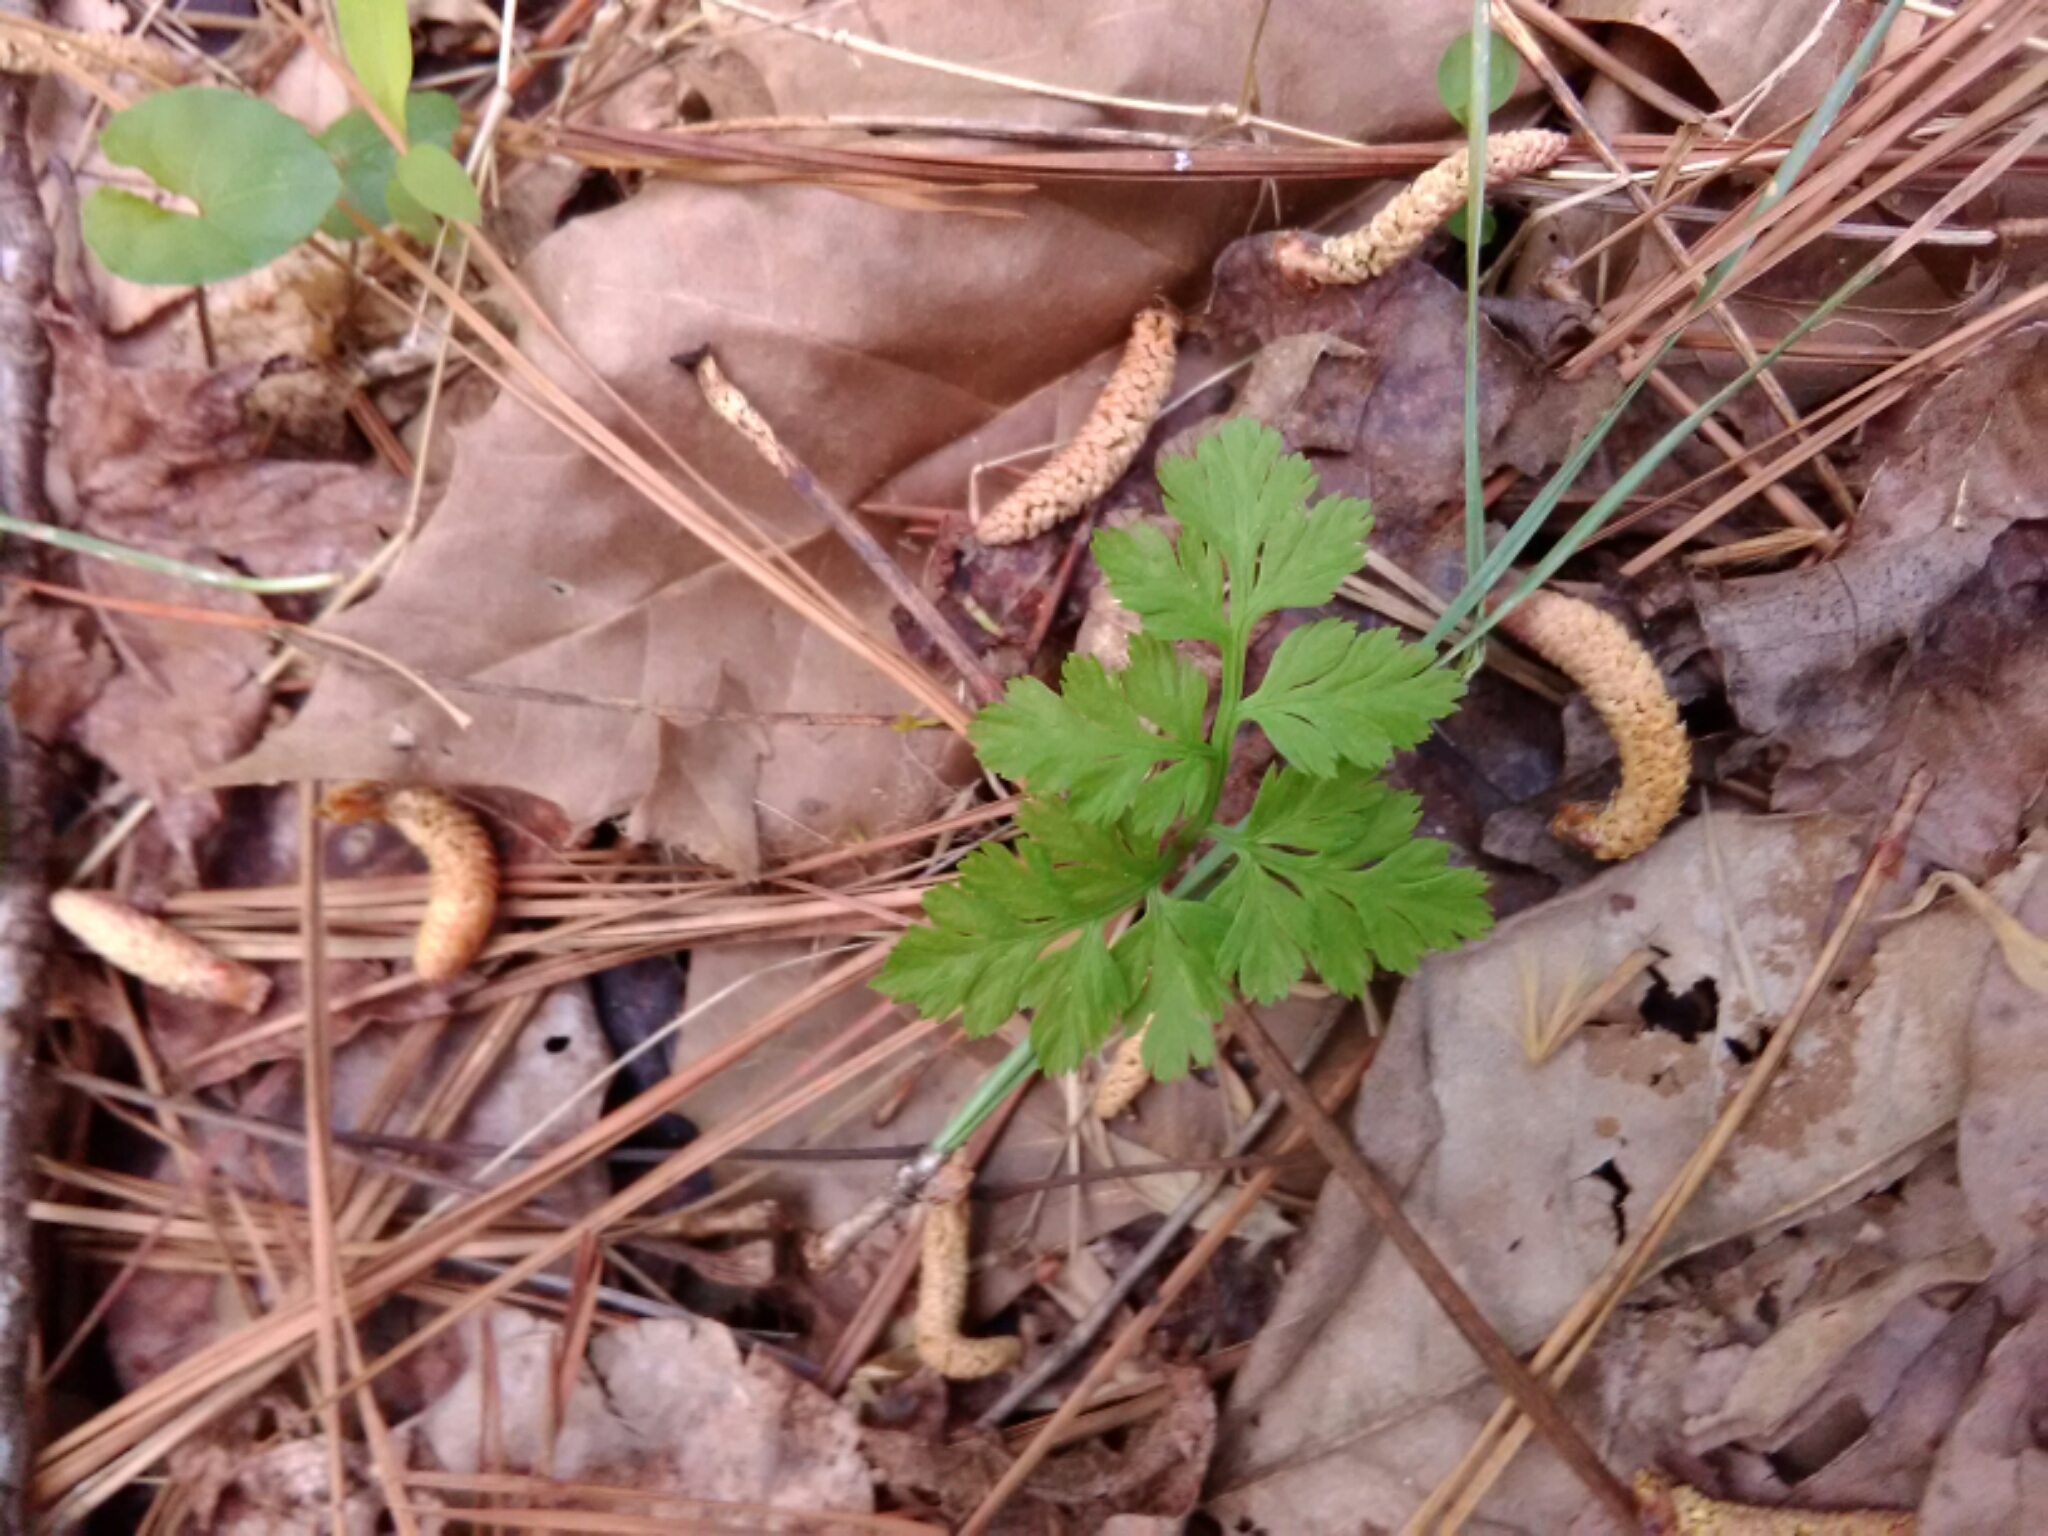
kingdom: Plantae
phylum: Tracheophyta
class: Polypodiopsida
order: Ophioglossales
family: Ophioglossaceae
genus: Botrypus
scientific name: Botrypus virginianus
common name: Common grapefern
